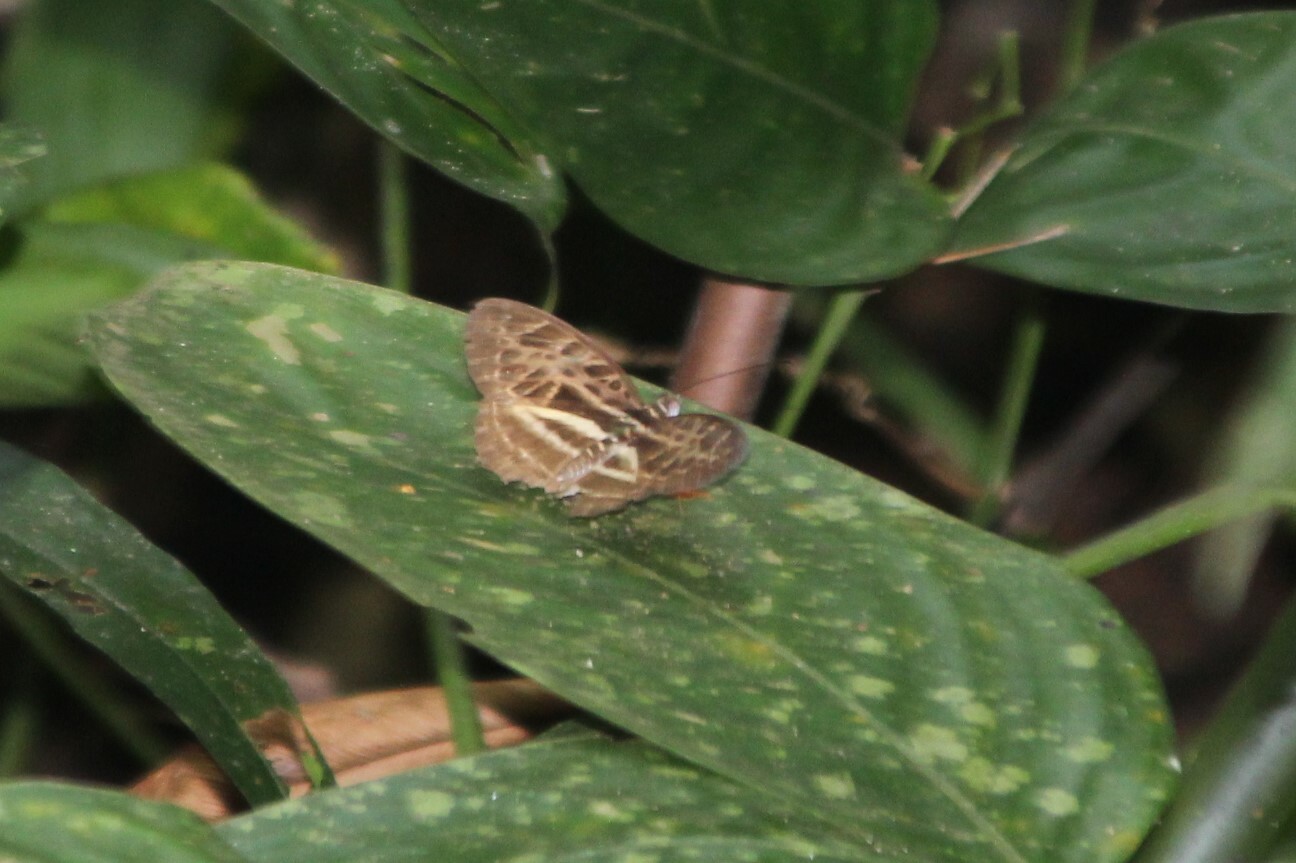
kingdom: Animalia
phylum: Arthropoda
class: Insecta
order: Lepidoptera
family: Nymphalidae
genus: Catuna
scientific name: Catuna
